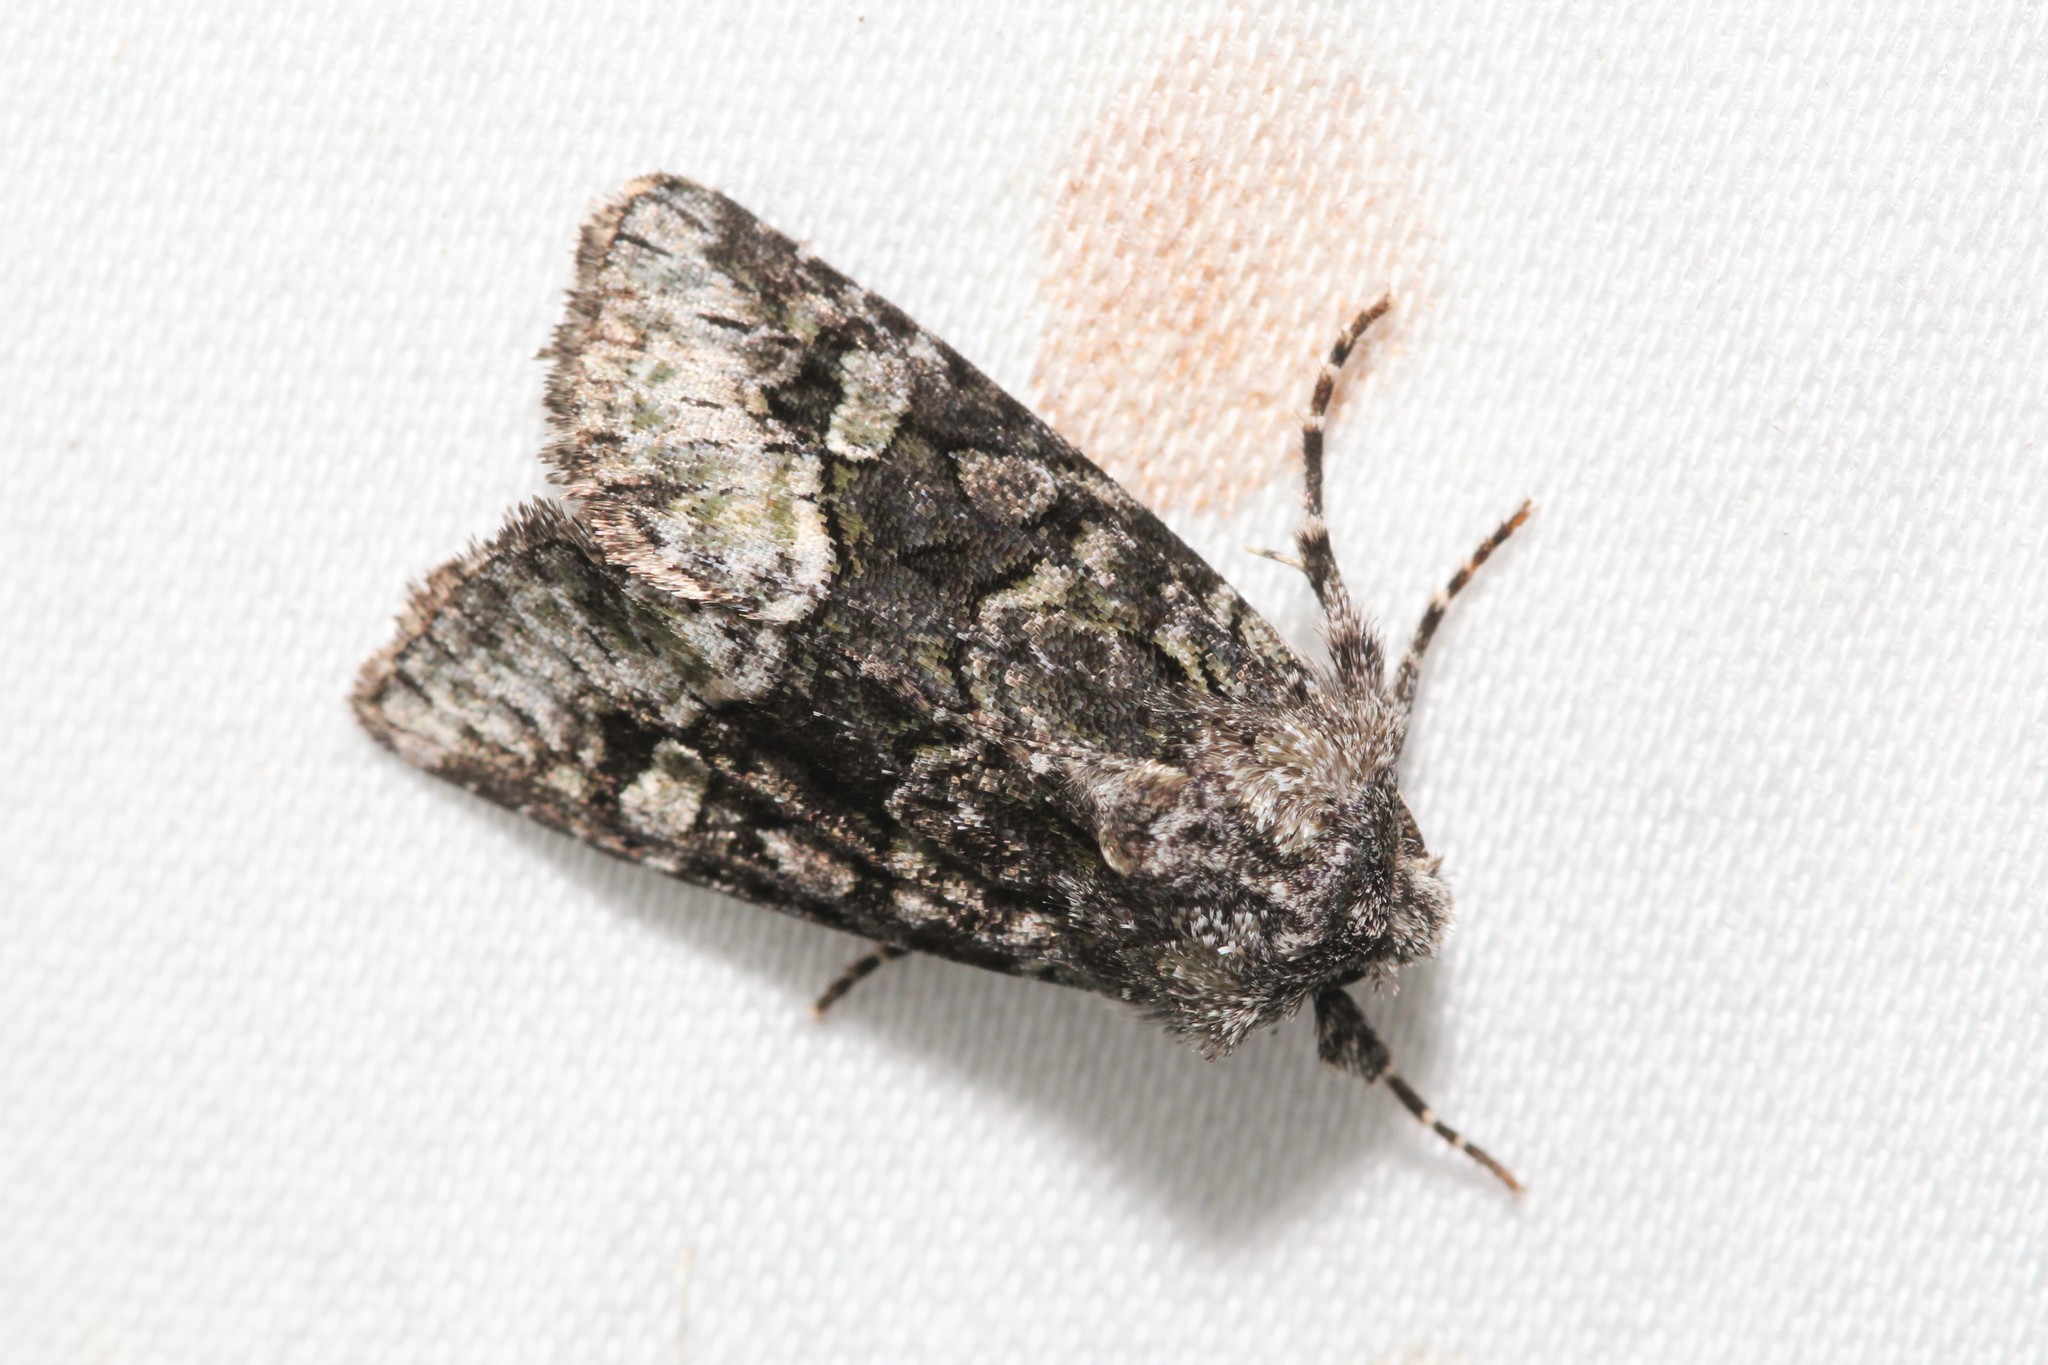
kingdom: Animalia
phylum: Arthropoda
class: Insecta
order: Lepidoptera
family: Noctuidae
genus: Lacinipolia
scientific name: Lacinipolia olivacea
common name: Olive arches moth
